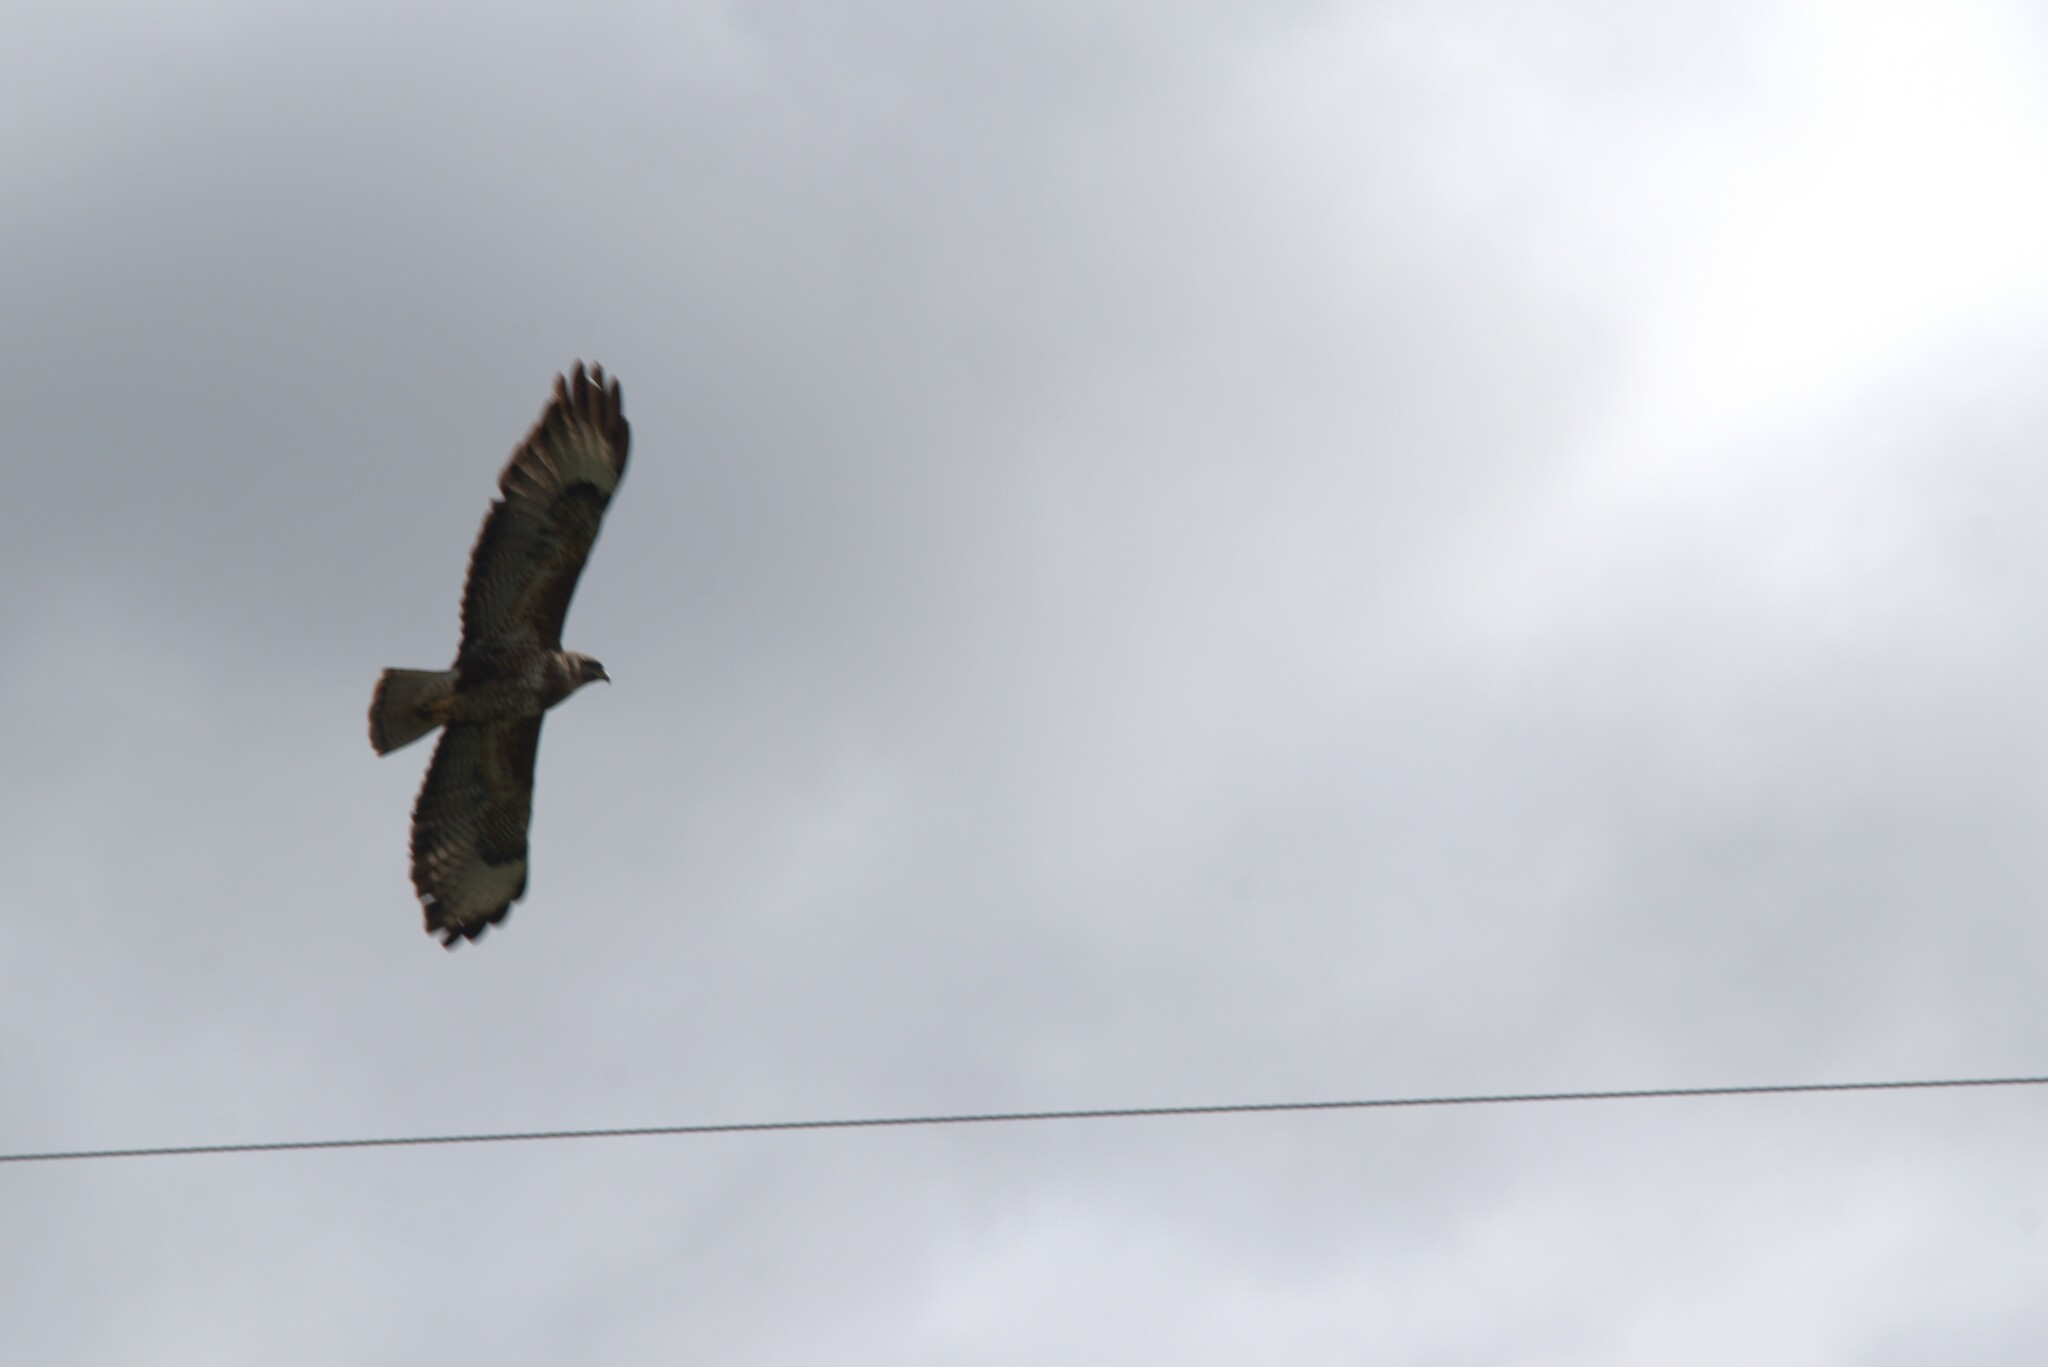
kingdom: Animalia
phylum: Chordata
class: Aves
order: Accipitriformes
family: Accipitridae
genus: Buteo
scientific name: Buteo buteo
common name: Common buzzard
